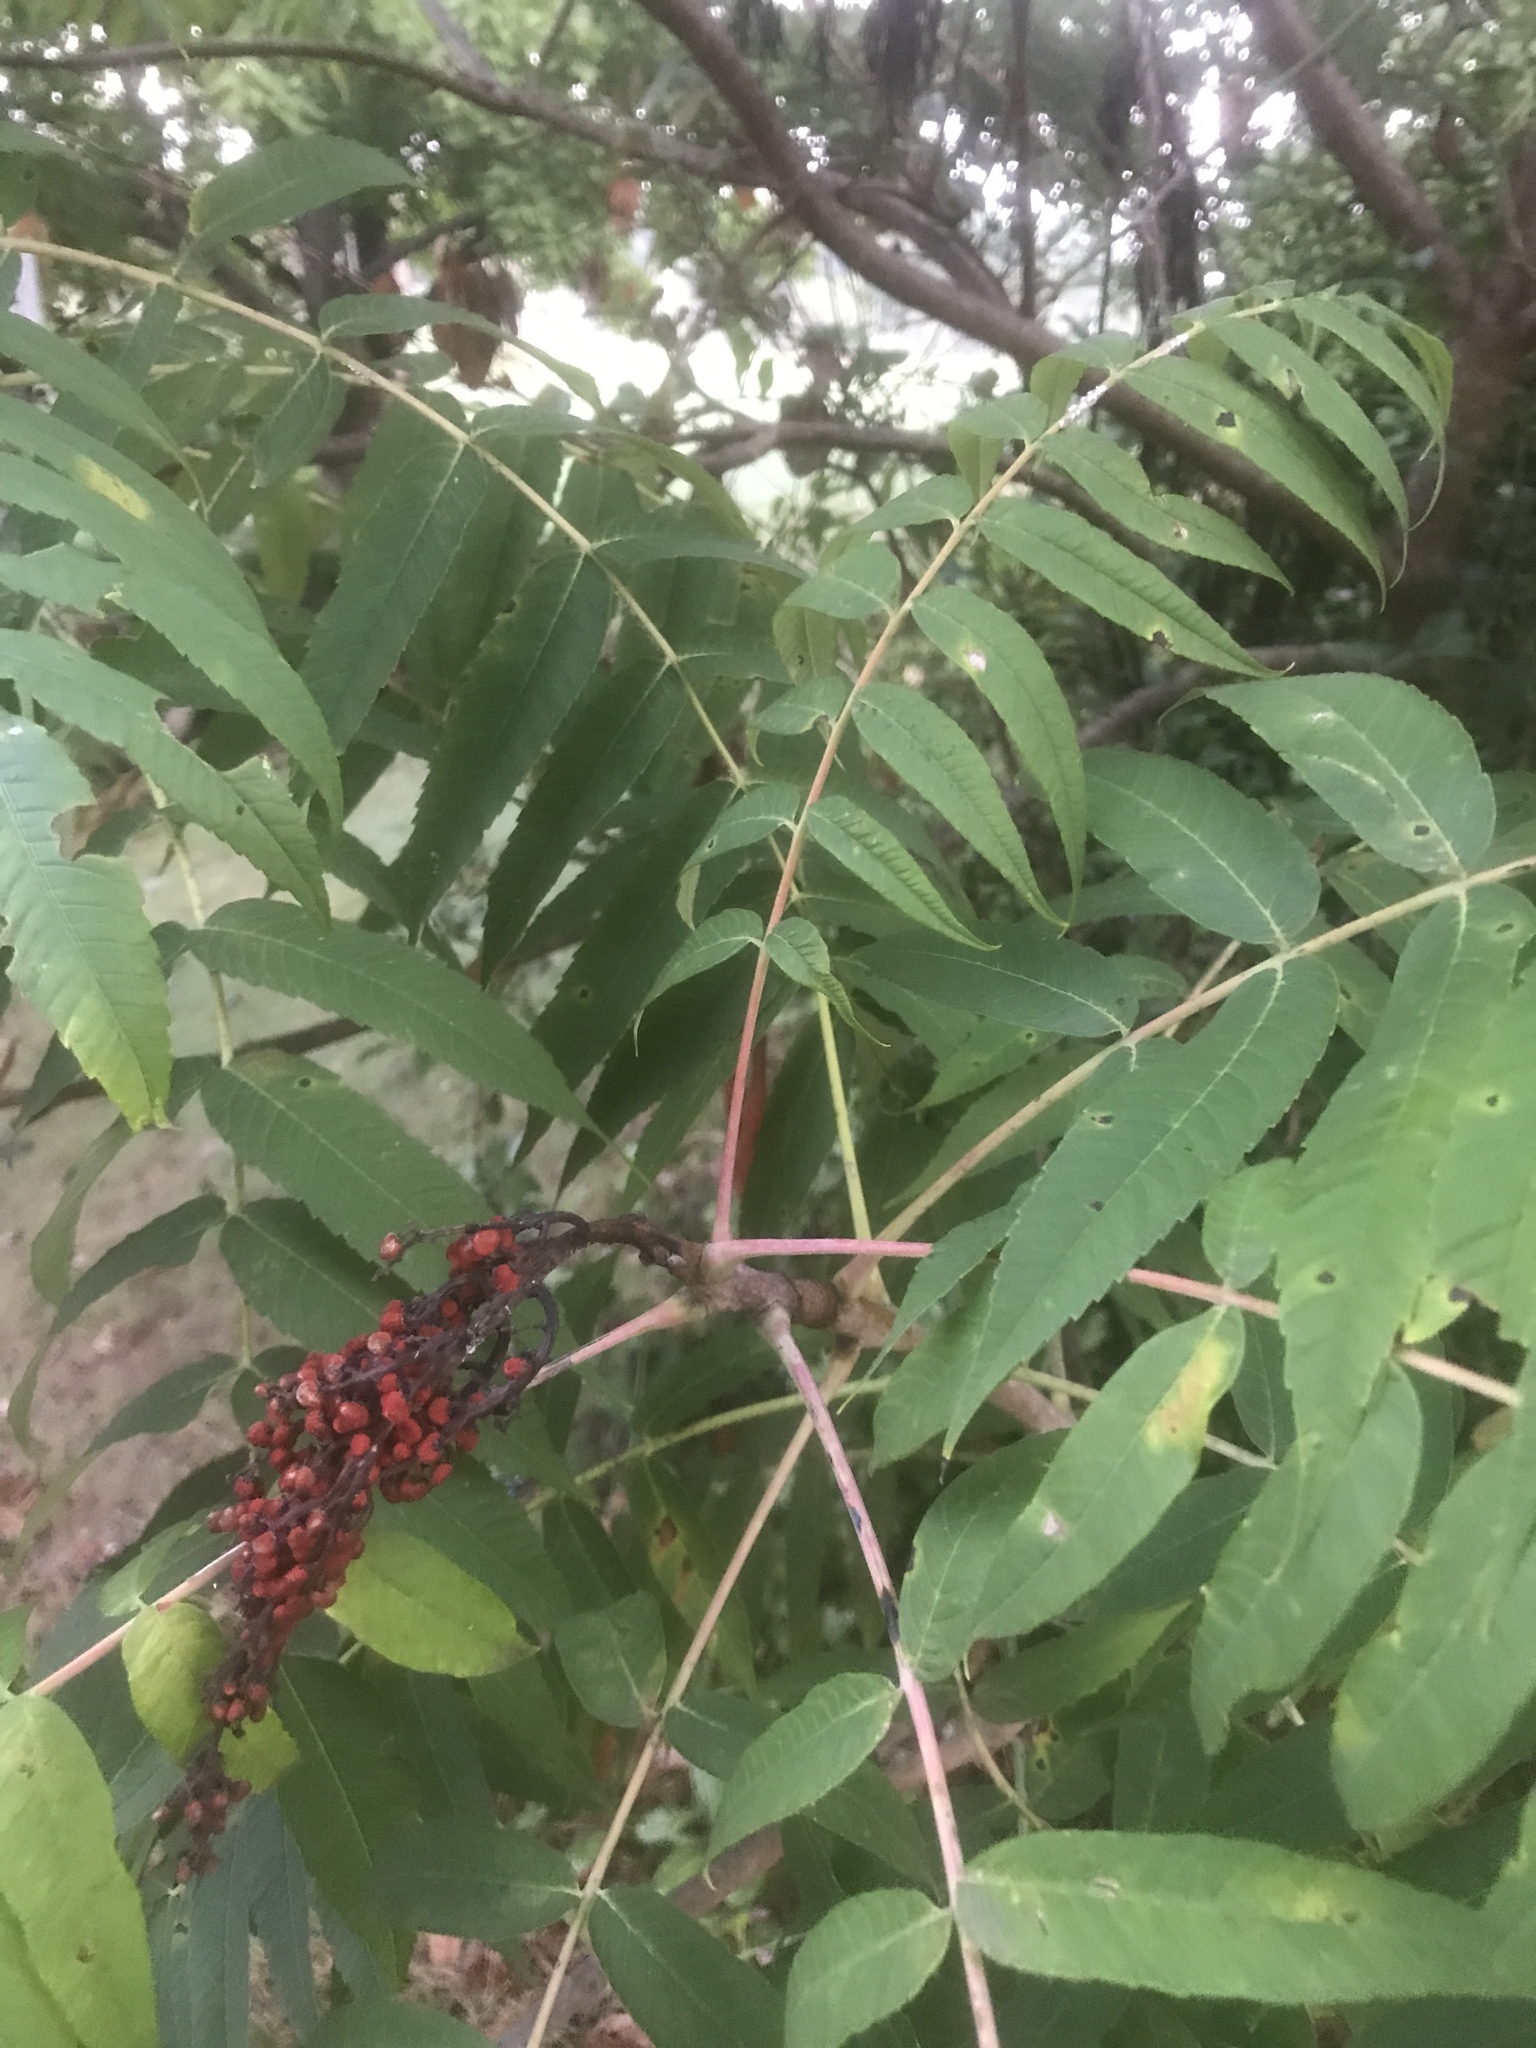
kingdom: Plantae
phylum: Tracheophyta
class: Magnoliopsida
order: Sapindales
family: Anacardiaceae
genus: Rhus
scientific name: Rhus glabra
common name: Scarlet sumac
